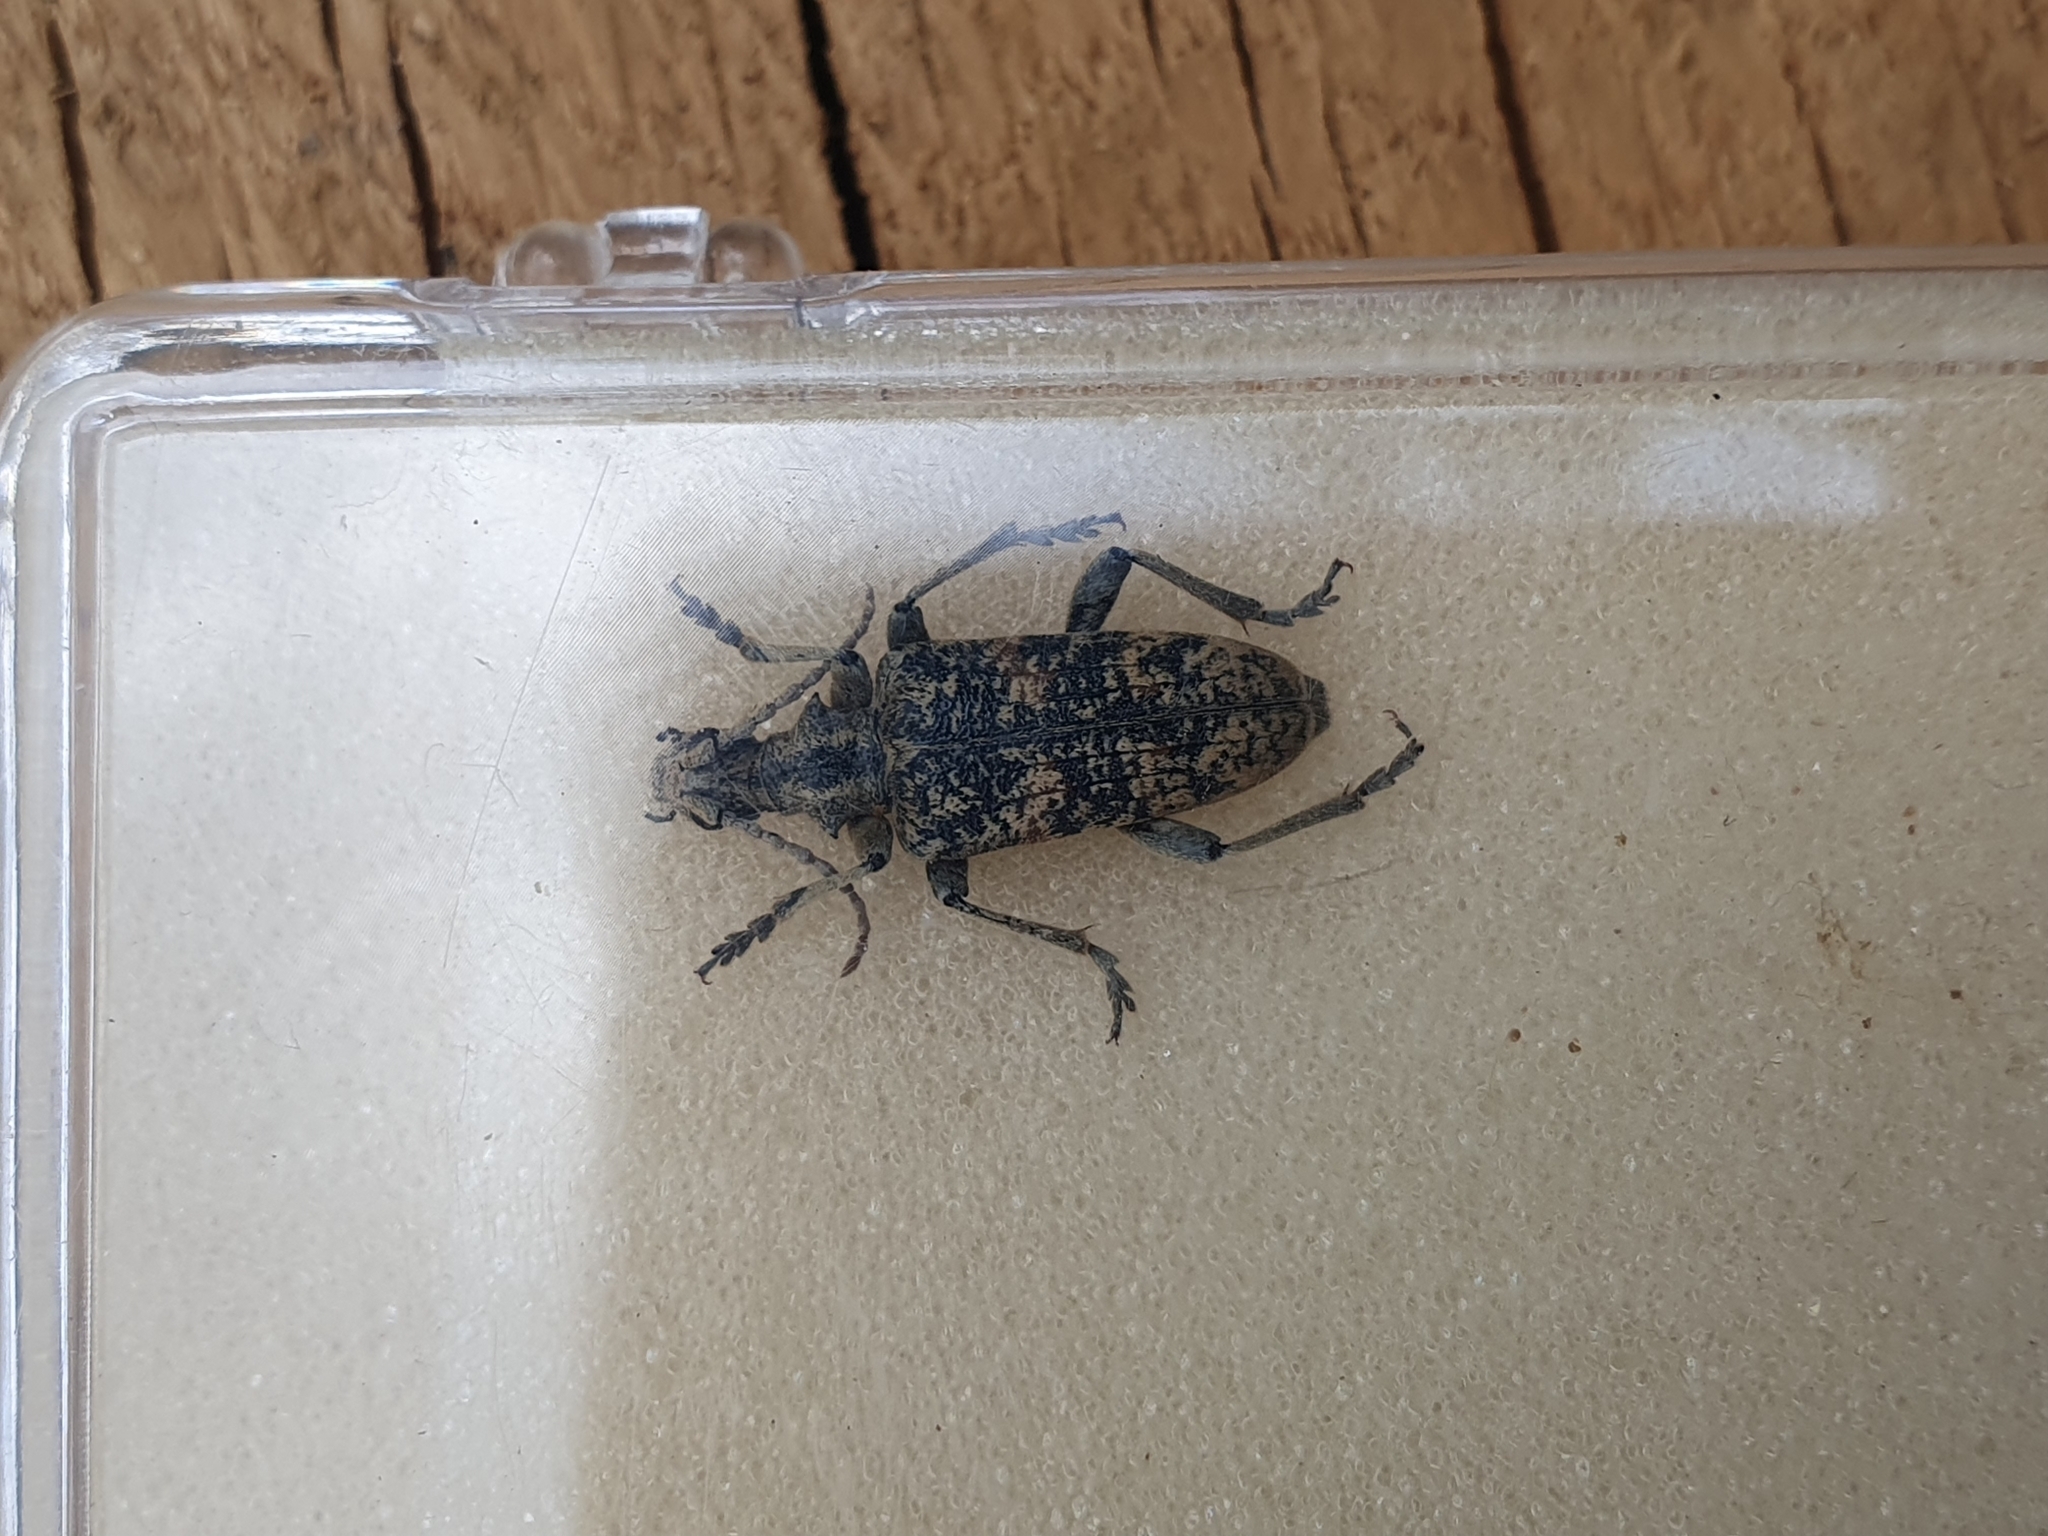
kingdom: Animalia
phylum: Arthropoda
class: Insecta
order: Coleoptera
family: Cerambycidae
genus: Rhagium
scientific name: Rhagium sycophanta
